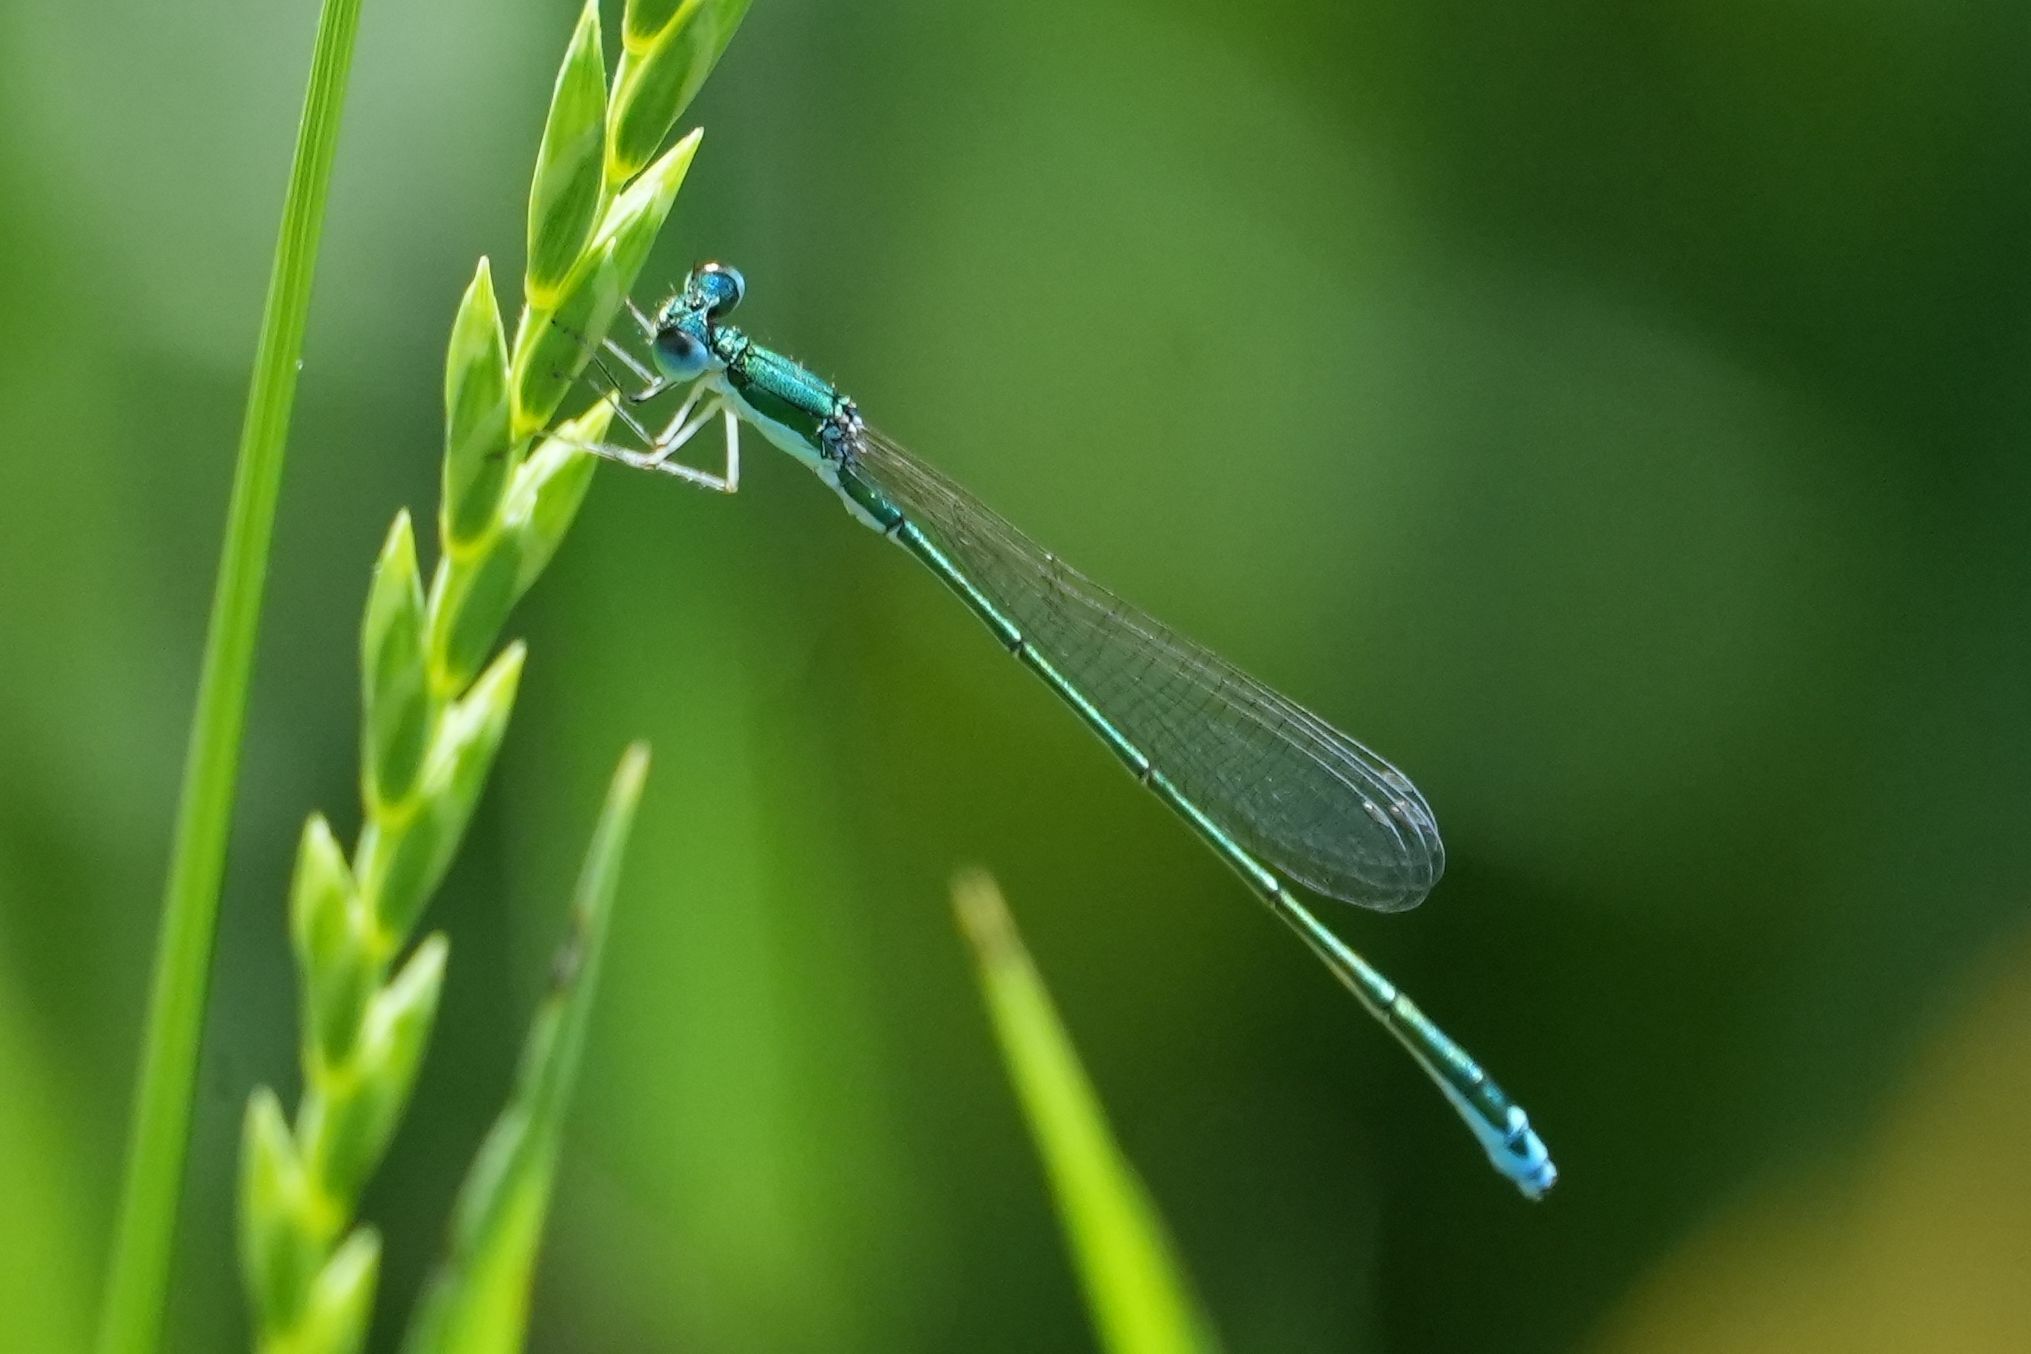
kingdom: Animalia
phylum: Arthropoda
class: Insecta
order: Odonata
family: Coenagrionidae
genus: Nehalennia
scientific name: Nehalennia irene
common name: Sedge sprite
